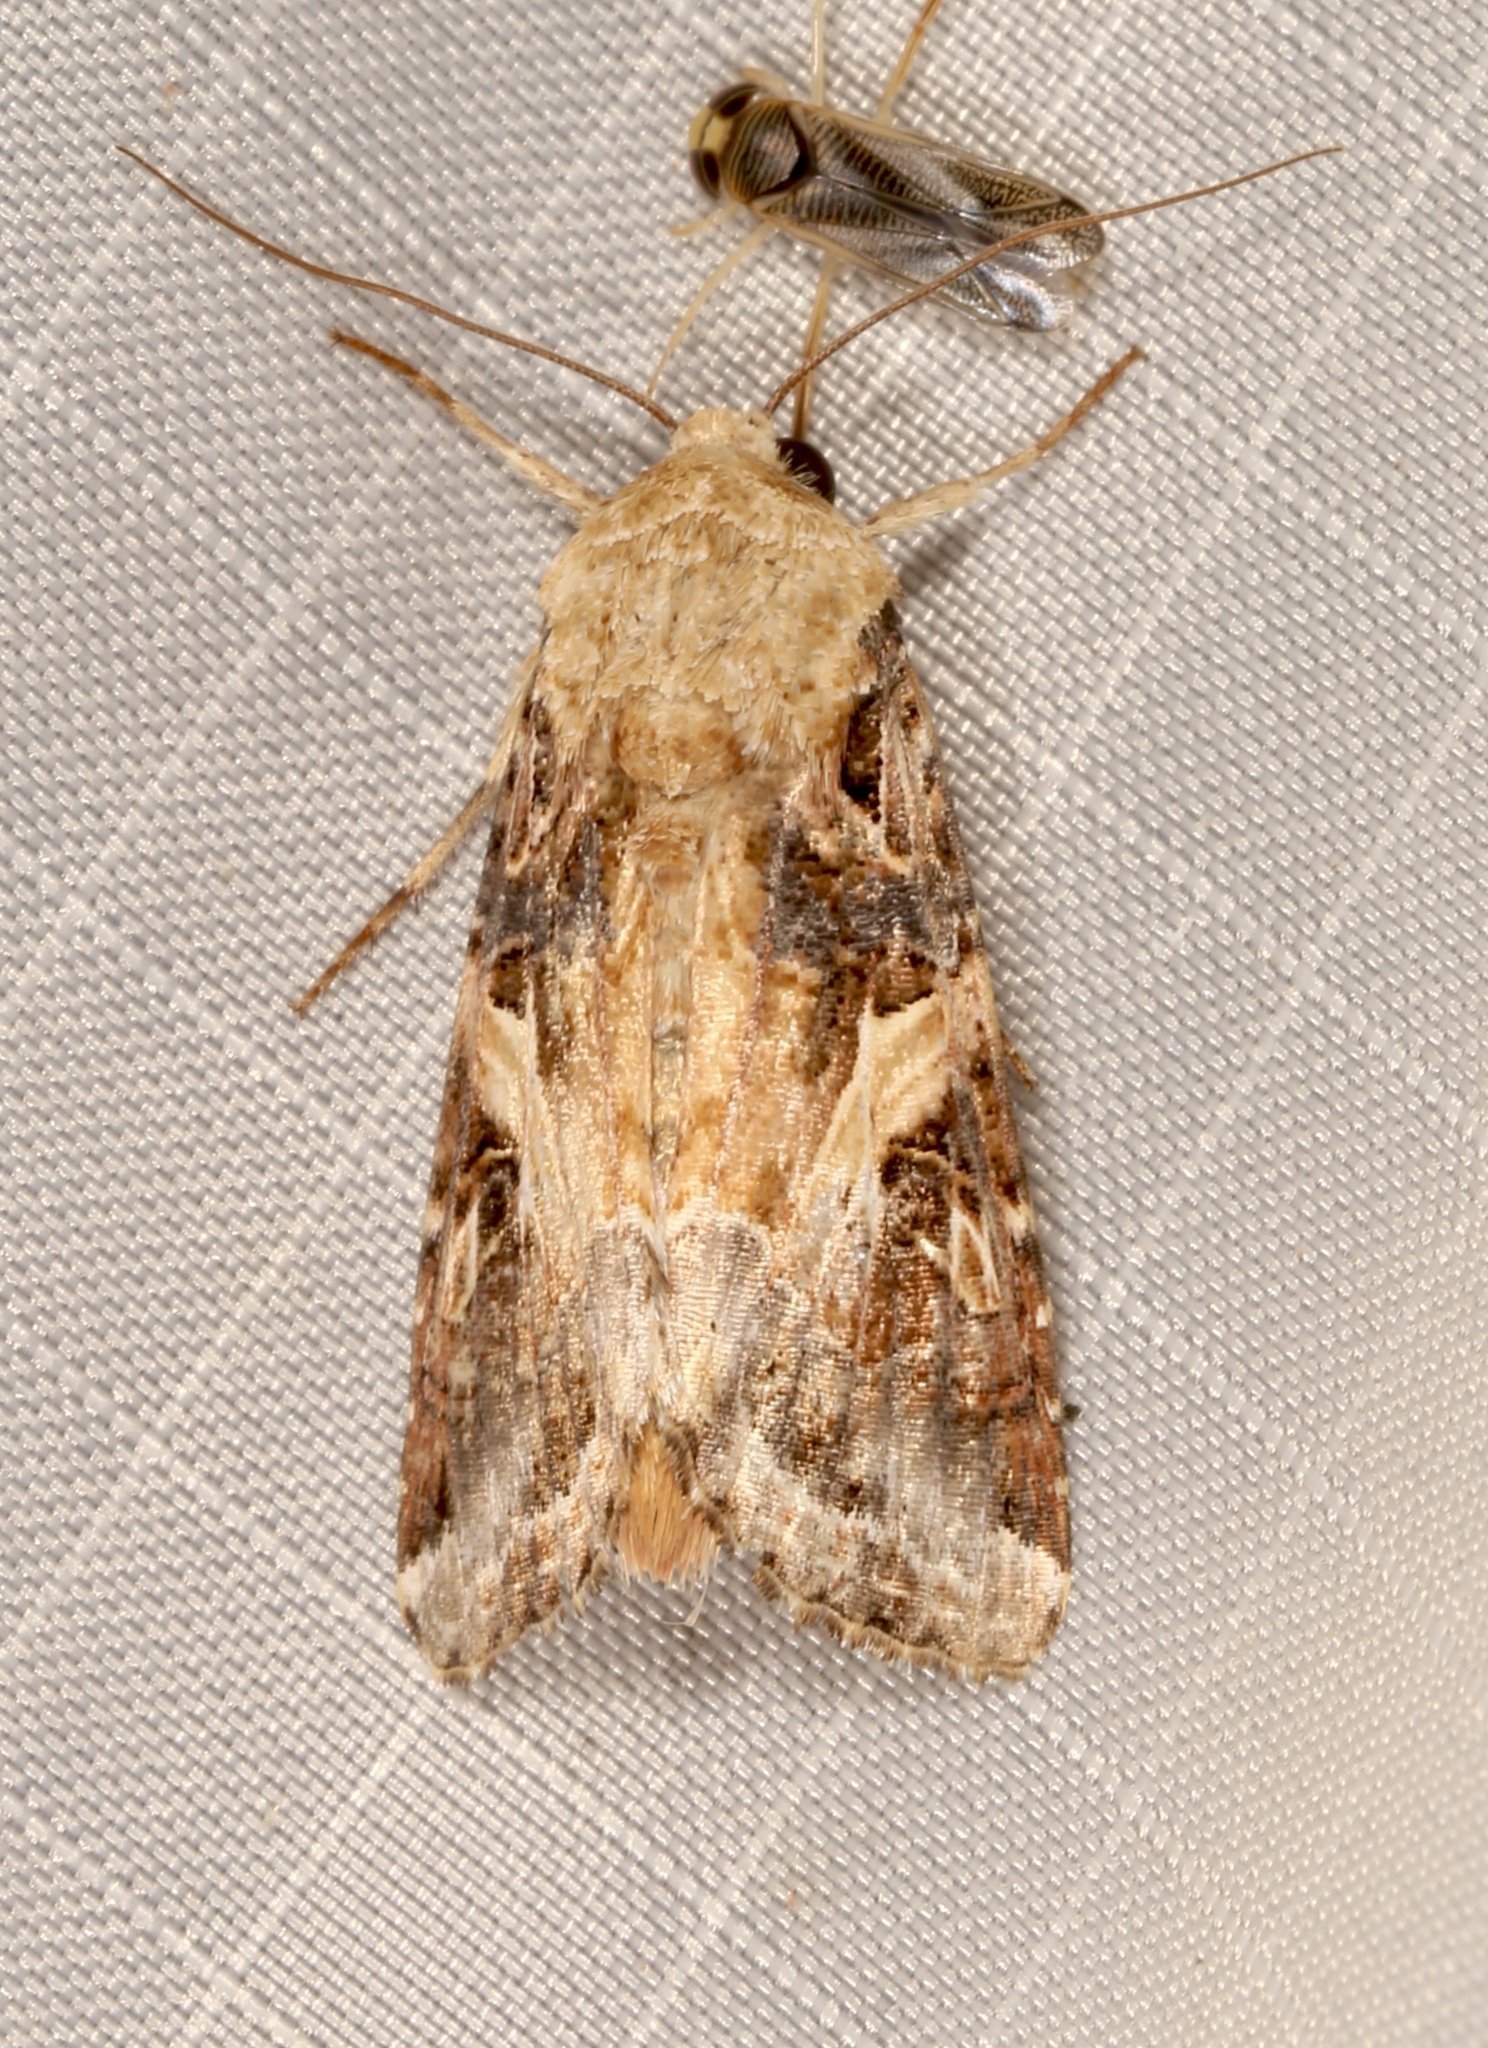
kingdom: Animalia
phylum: Arthropoda
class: Insecta
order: Lepidoptera
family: Noctuidae
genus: Spodoptera
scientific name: Spodoptera ornithogalli
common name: Yellow-striped armyworm
